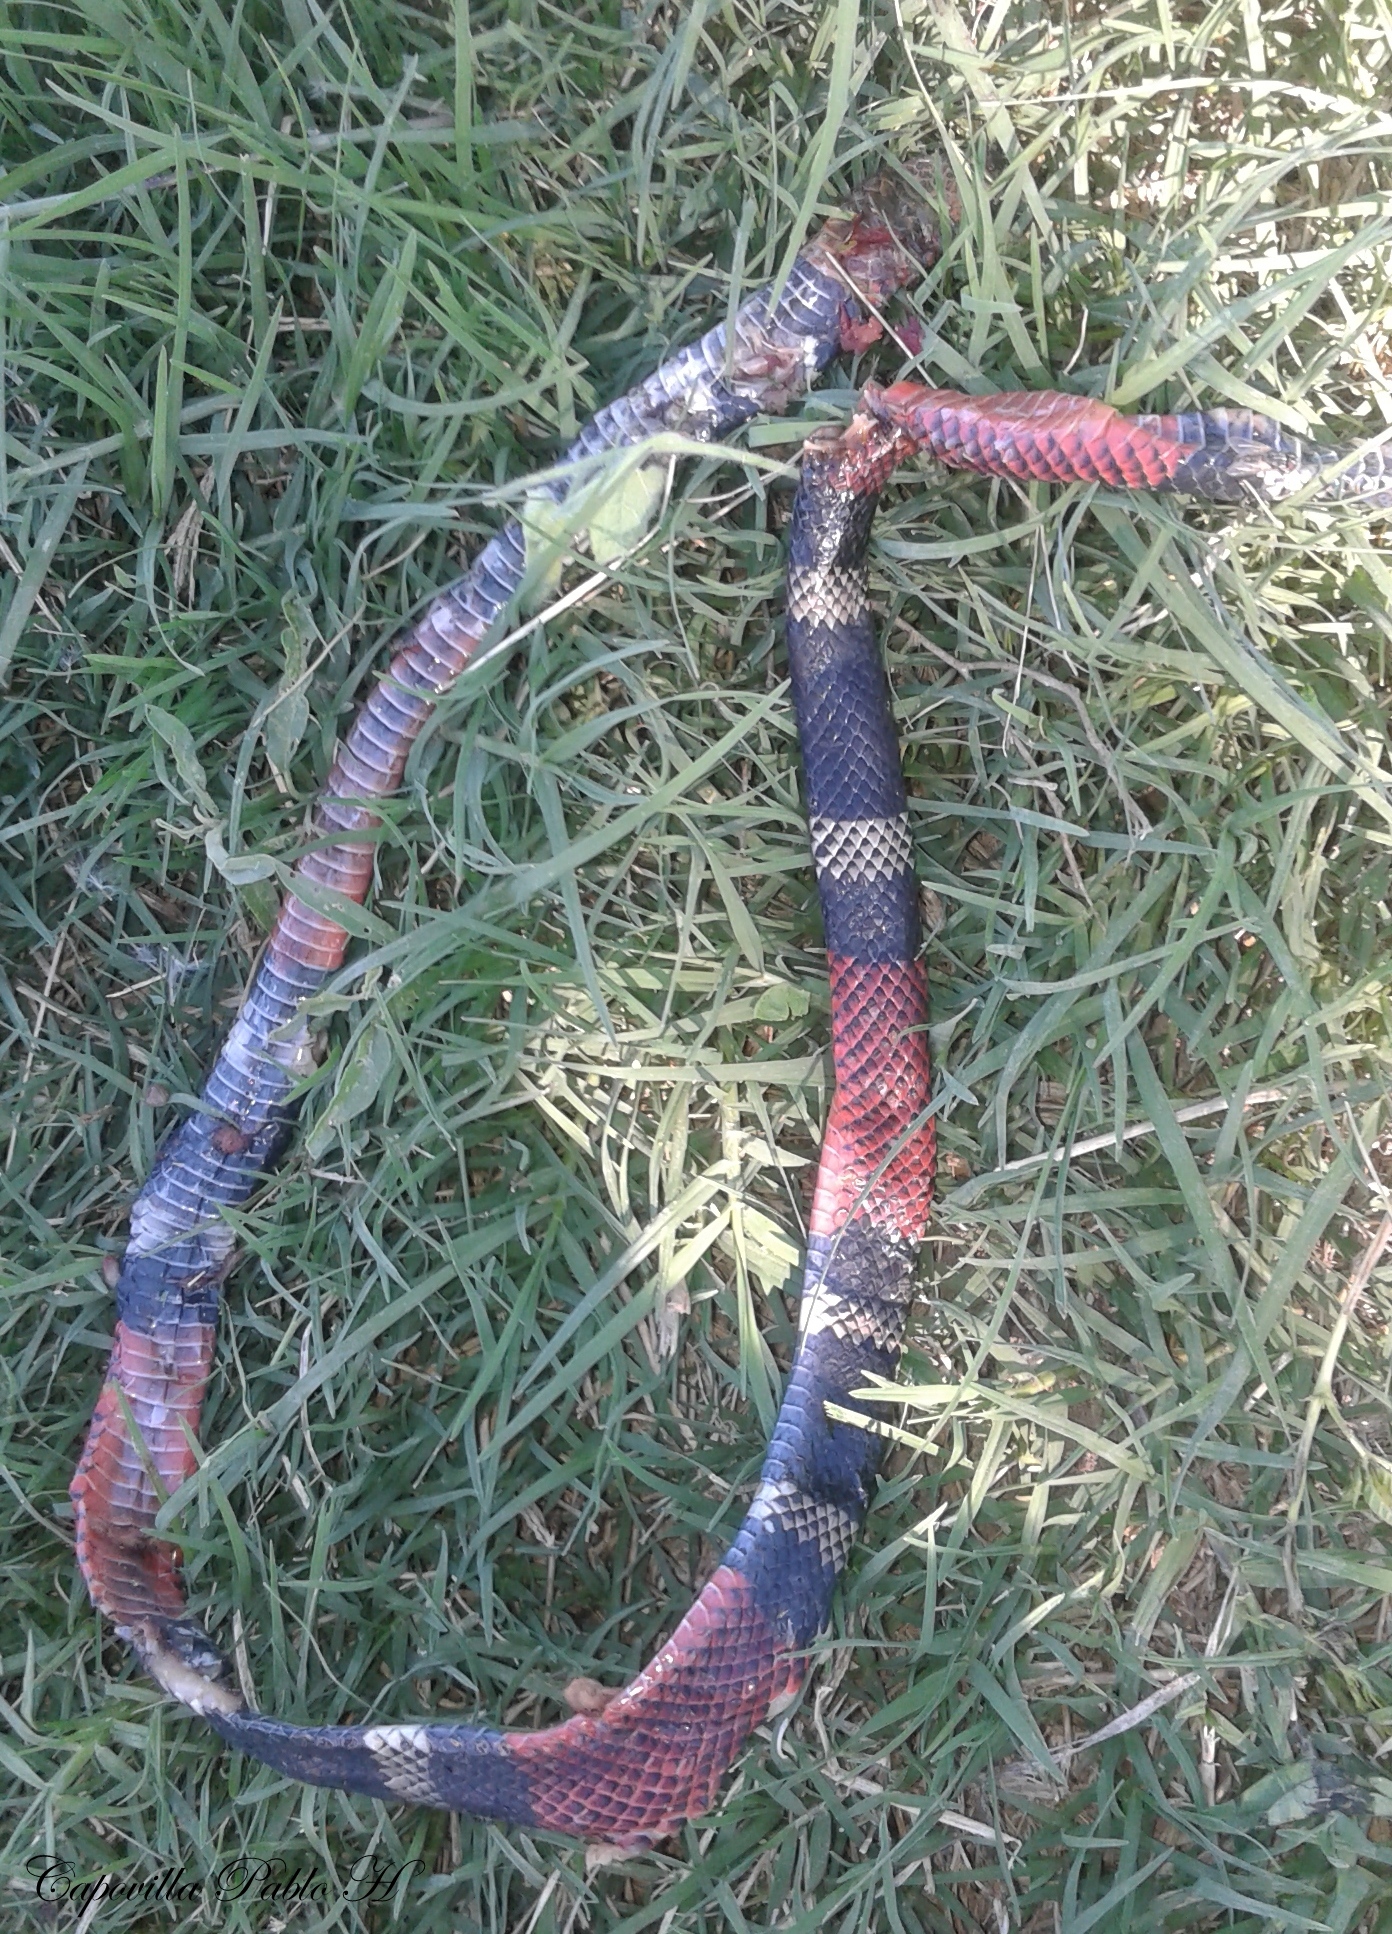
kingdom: Animalia
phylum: Chordata
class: Squamata
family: Elapidae
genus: Micrurus
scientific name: Micrurus pyrrhocryptus
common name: Argentinian coral snake
